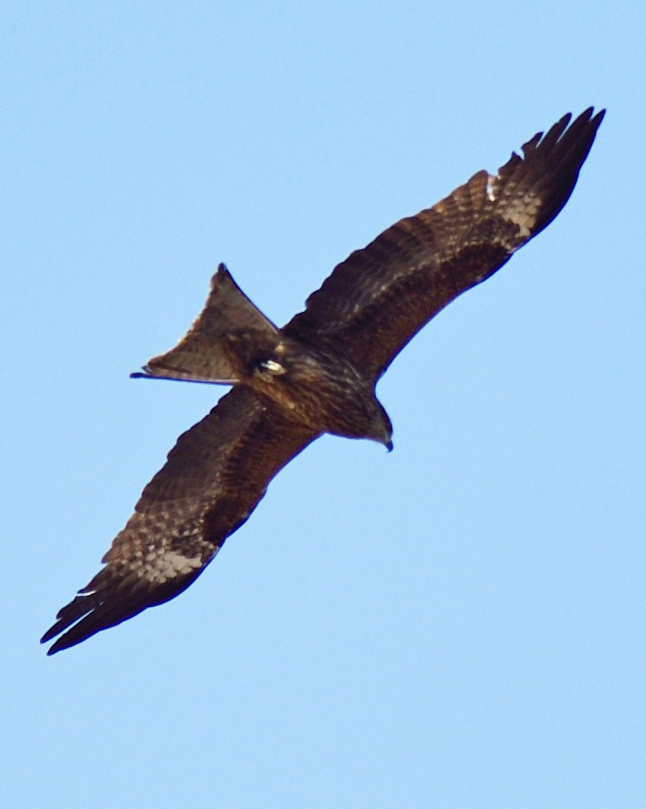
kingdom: Animalia
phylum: Chordata
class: Aves
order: Accipitriformes
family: Accipitridae
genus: Milvus
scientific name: Milvus migrans
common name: Black kite
